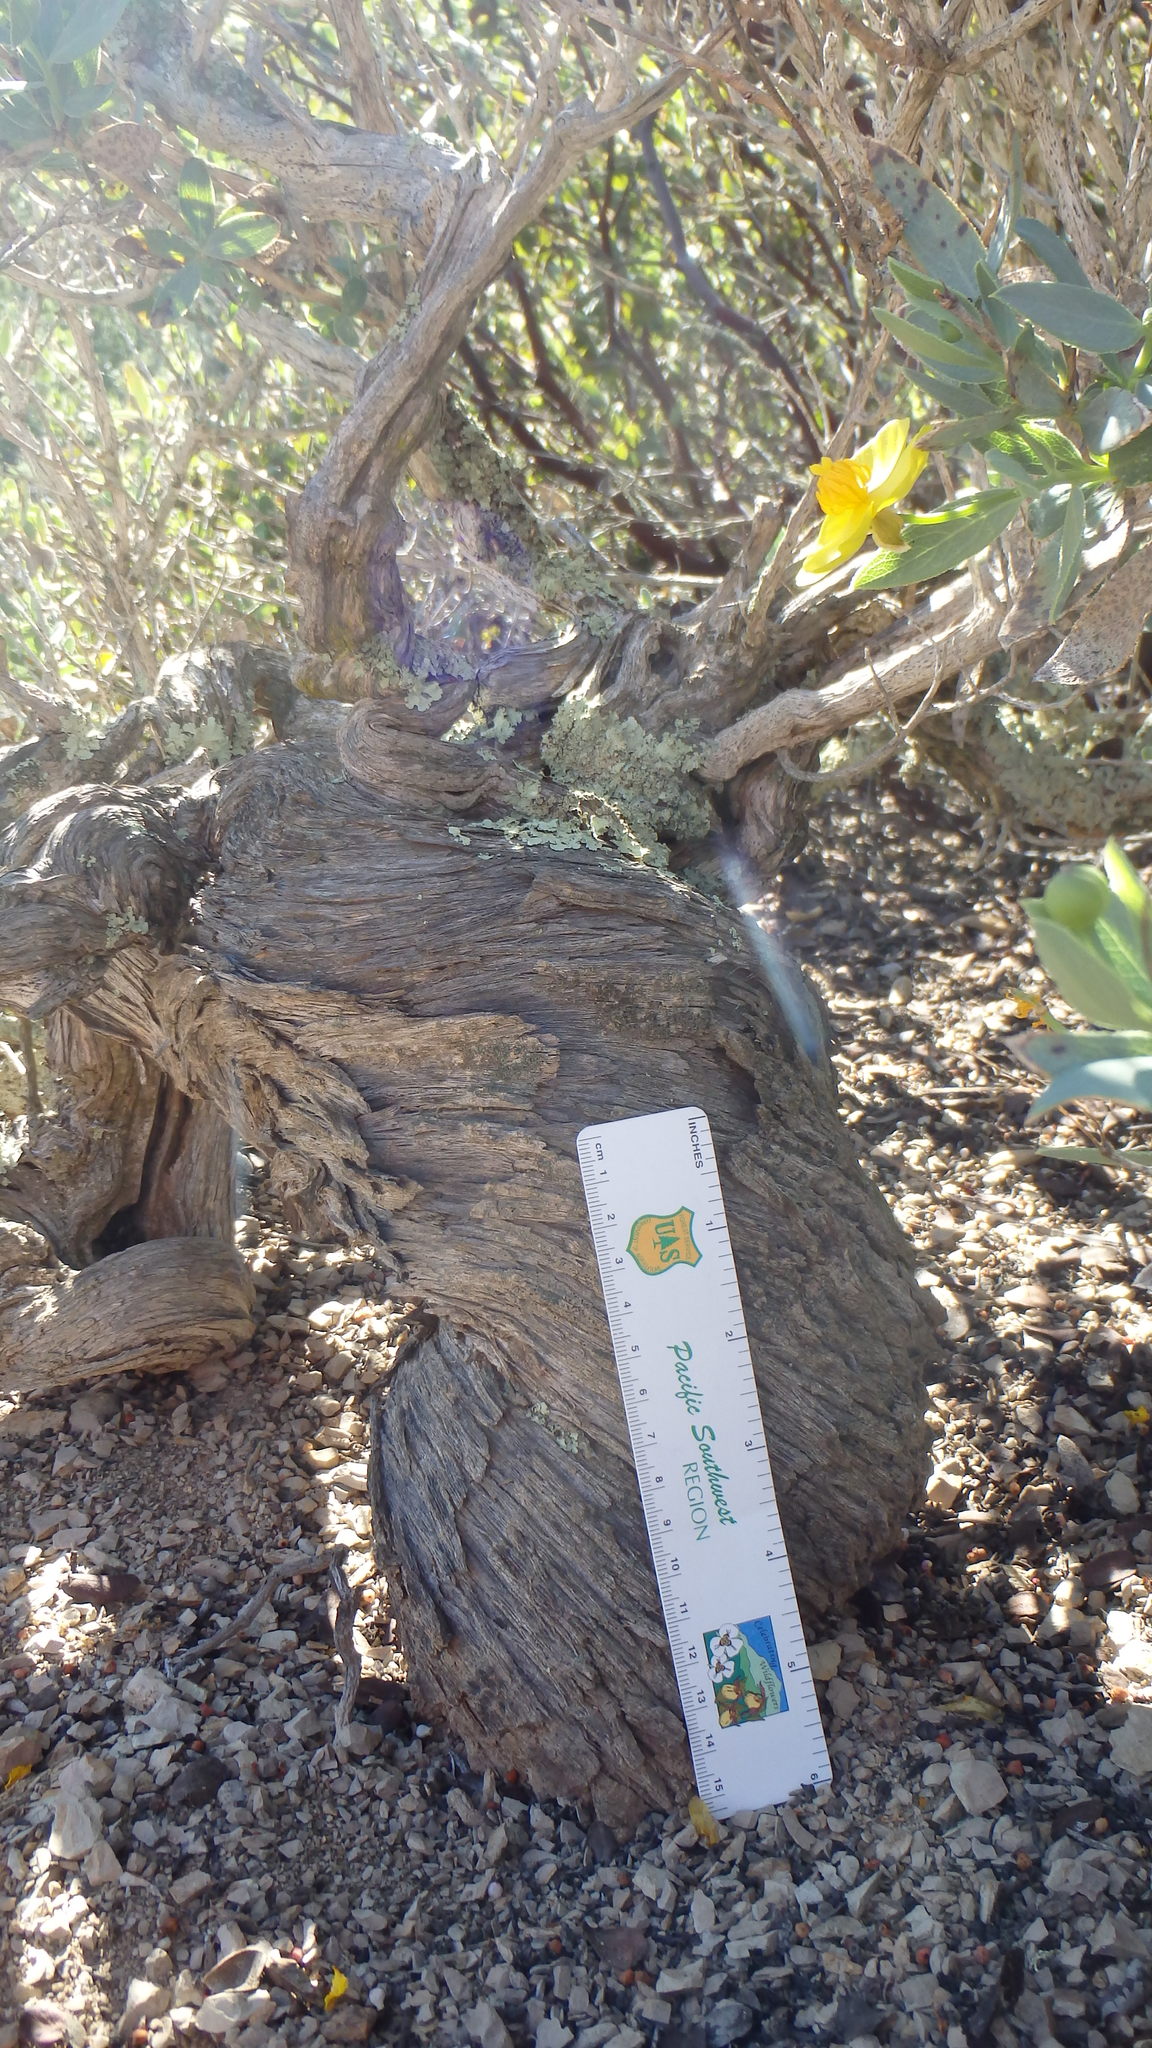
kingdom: Fungi
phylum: Ascomycota
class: Lecanoromycetes
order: Lecanorales
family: Parmeliaceae
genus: Flavopunctelia
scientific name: Flavopunctelia flaventior
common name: Speckled greenshield
